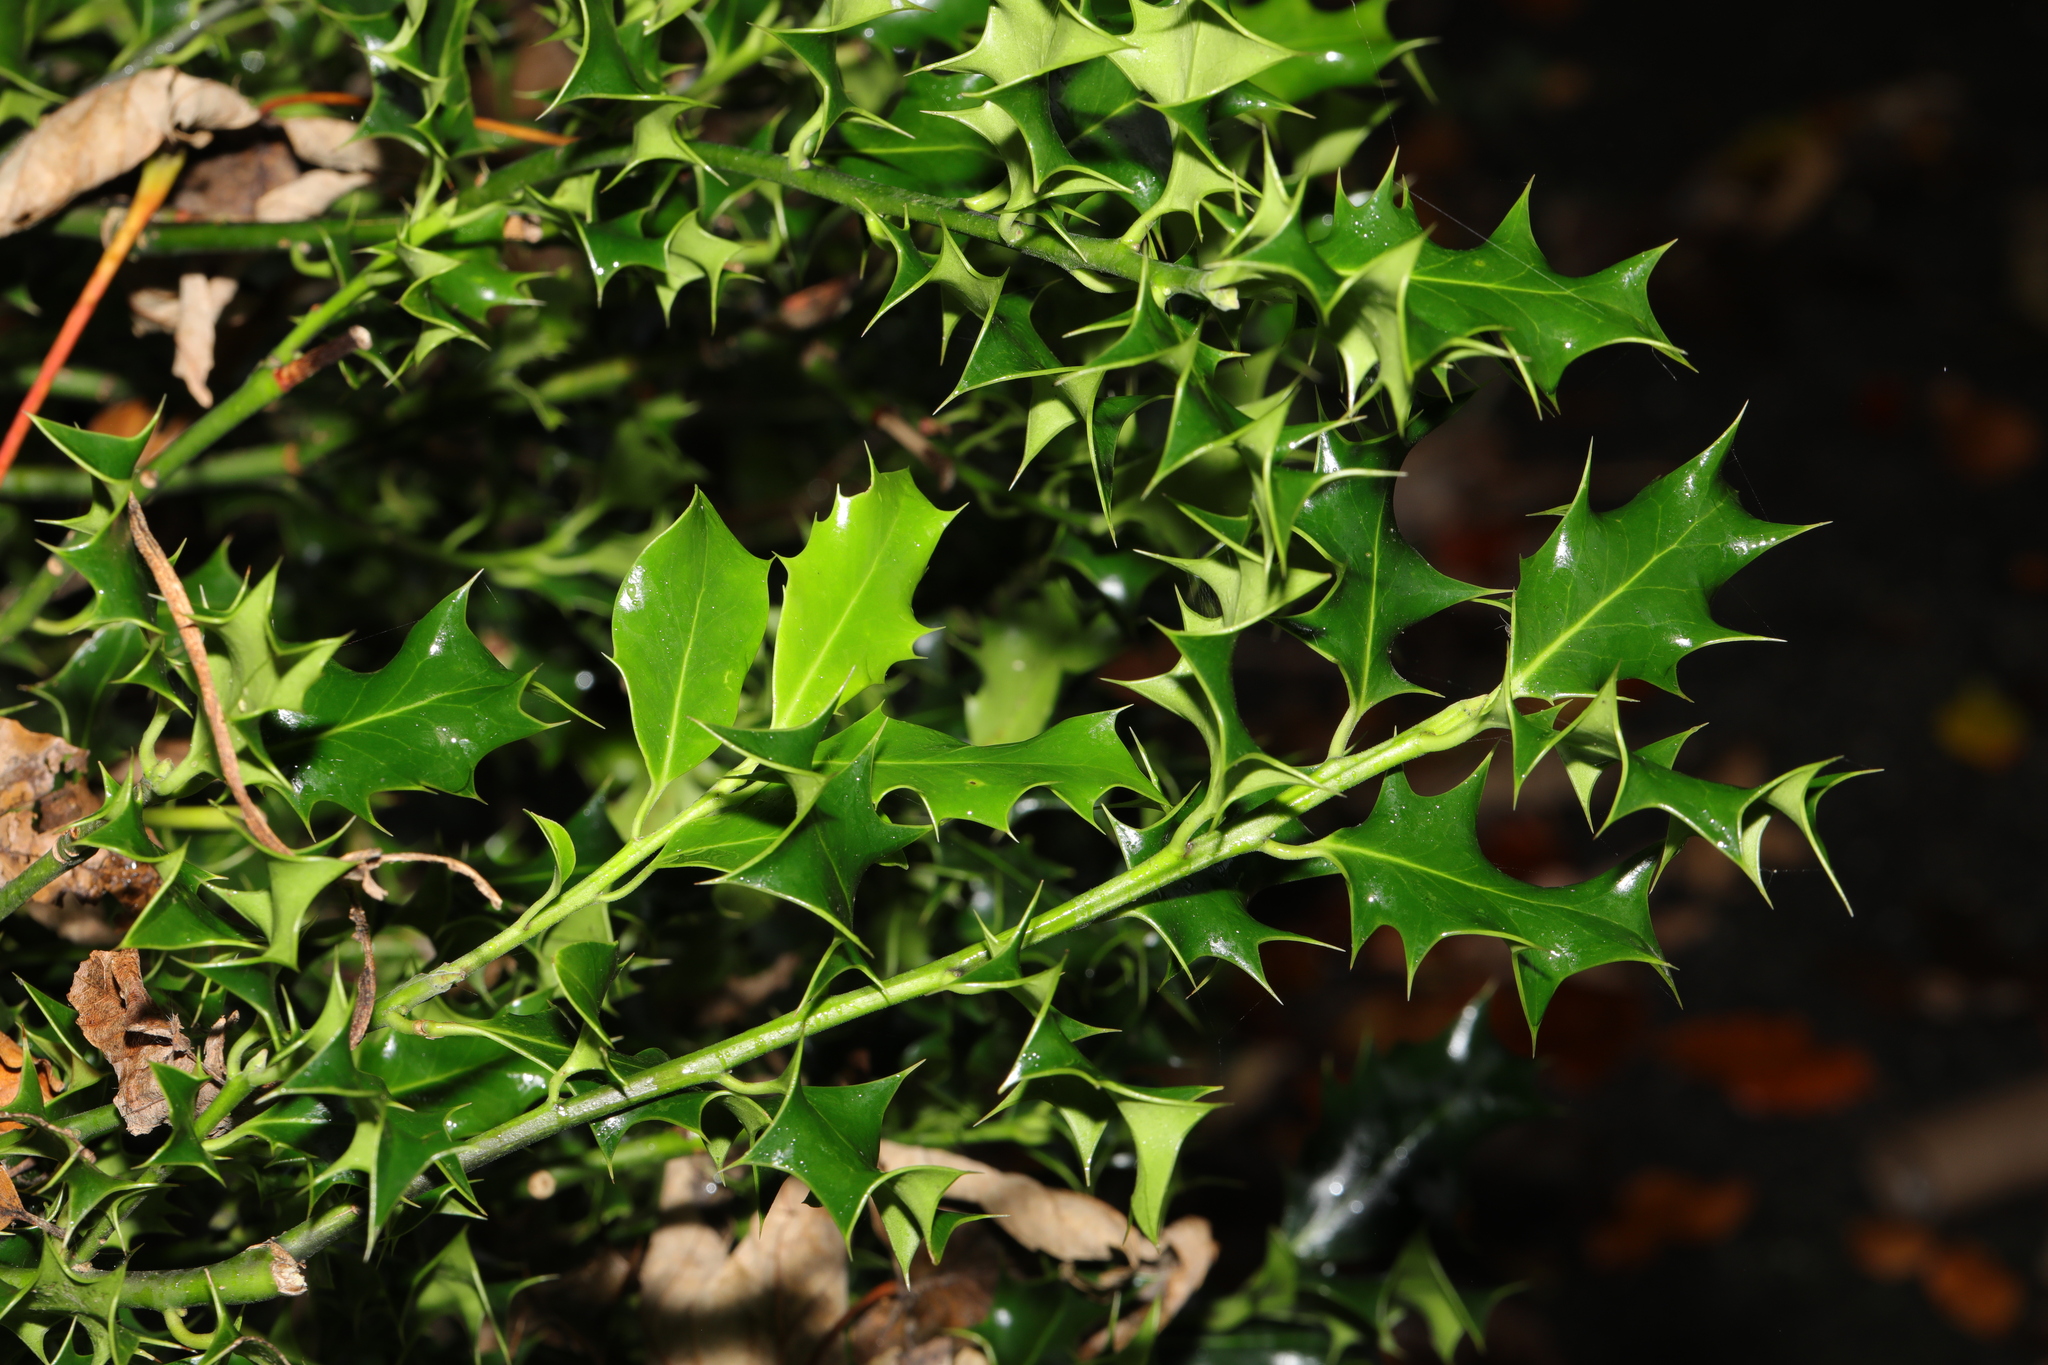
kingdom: Plantae
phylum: Tracheophyta
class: Magnoliopsida
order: Aquifoliales
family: Aquifoliaceae
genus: Ilex
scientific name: Ilex aquifolium
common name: English holly
